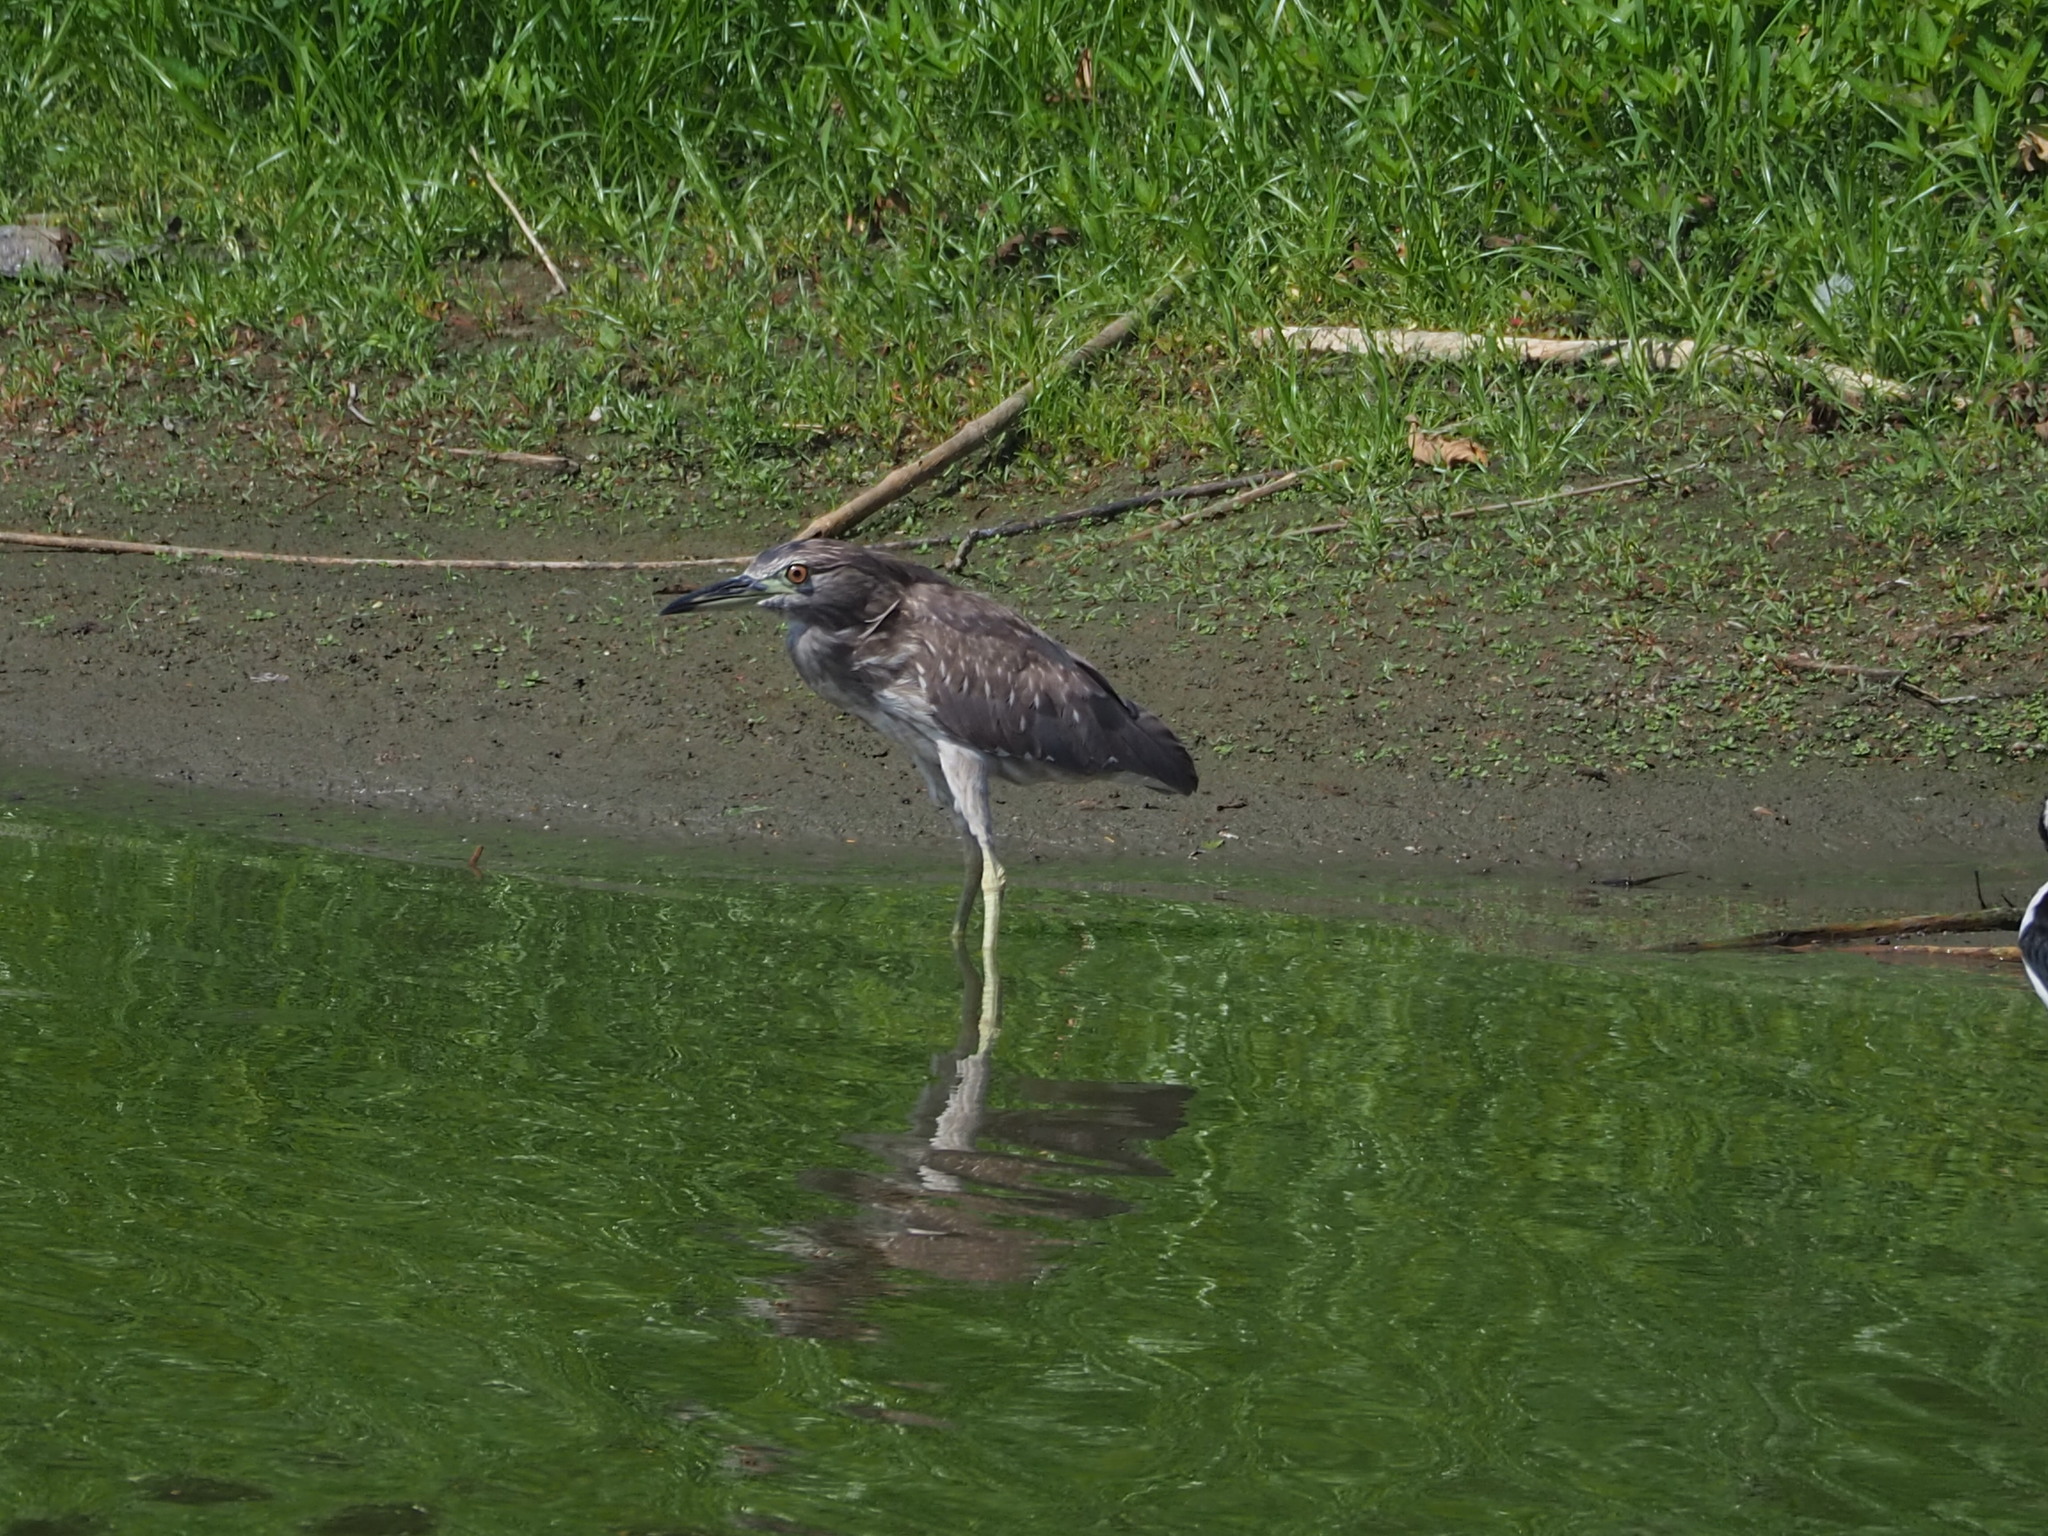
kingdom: Animalia
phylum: Chordata
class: Aves
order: Pelecaniformes
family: Ardeidae
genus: Nycticorax
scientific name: Nycticorax nycticorax
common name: Black-crowned night heron
